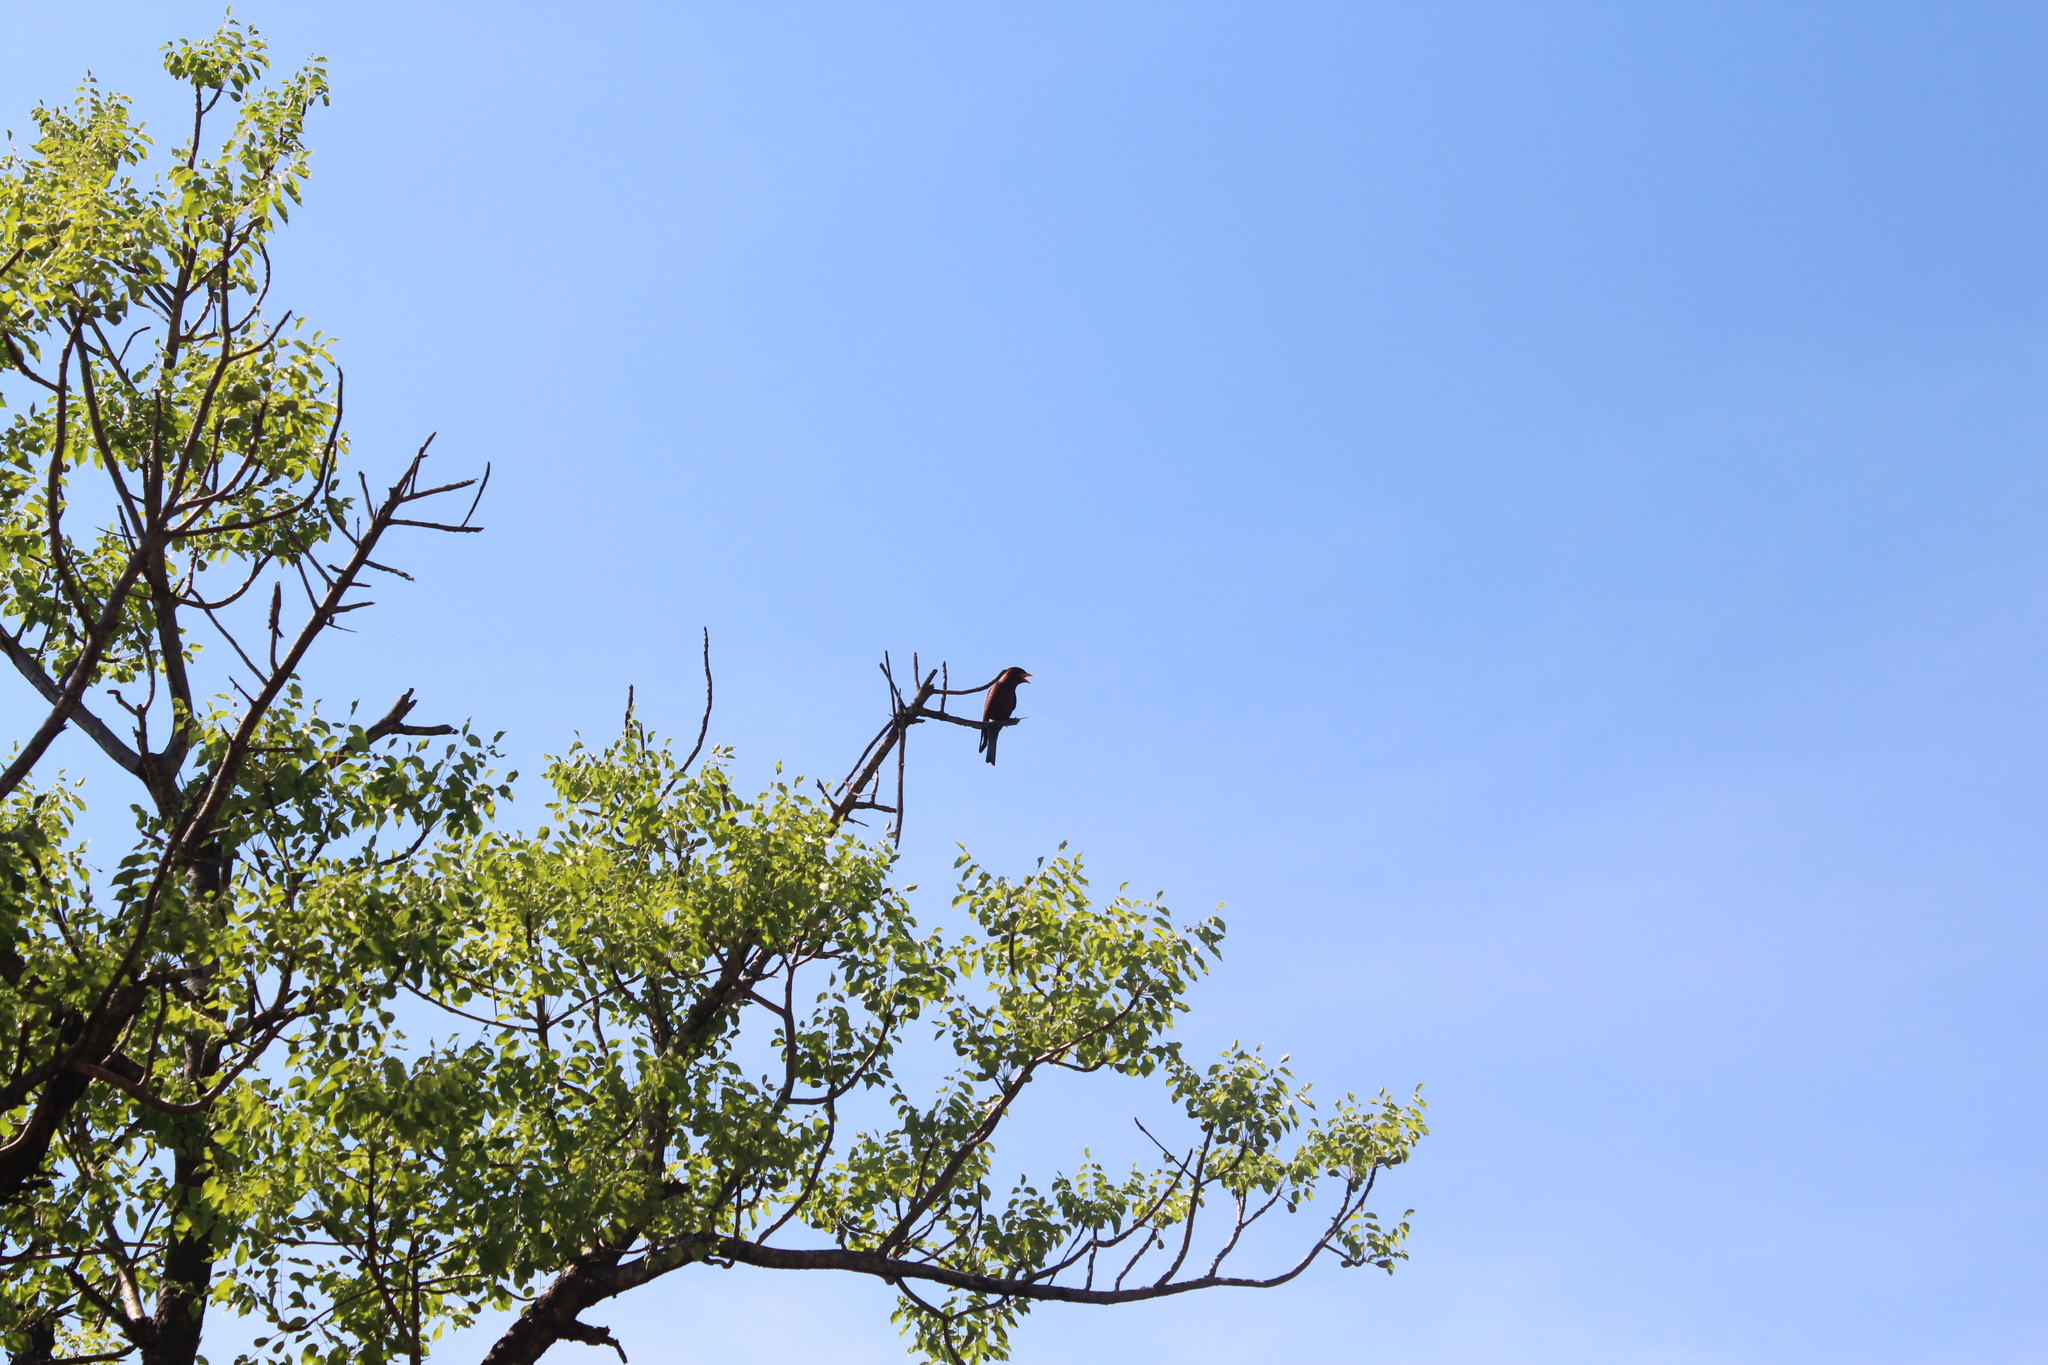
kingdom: Animalia
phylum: Chordata
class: Aves
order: Coraciiformes
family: Coraciidae
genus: Eurystomus
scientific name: Eurystomus glaucurus
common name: Broad-billed roller
